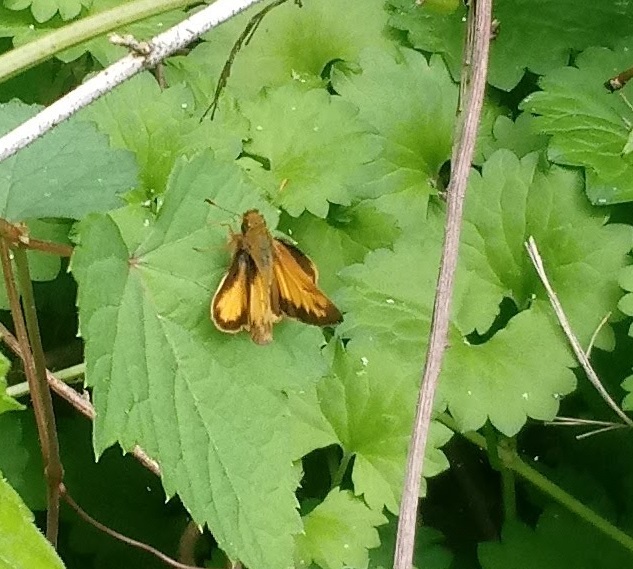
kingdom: Animalia
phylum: Arthropoda
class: Insecta
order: Lepidoptera
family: Hesperiidae
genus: Lon
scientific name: Lon zabulon
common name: Zabulon skipper
